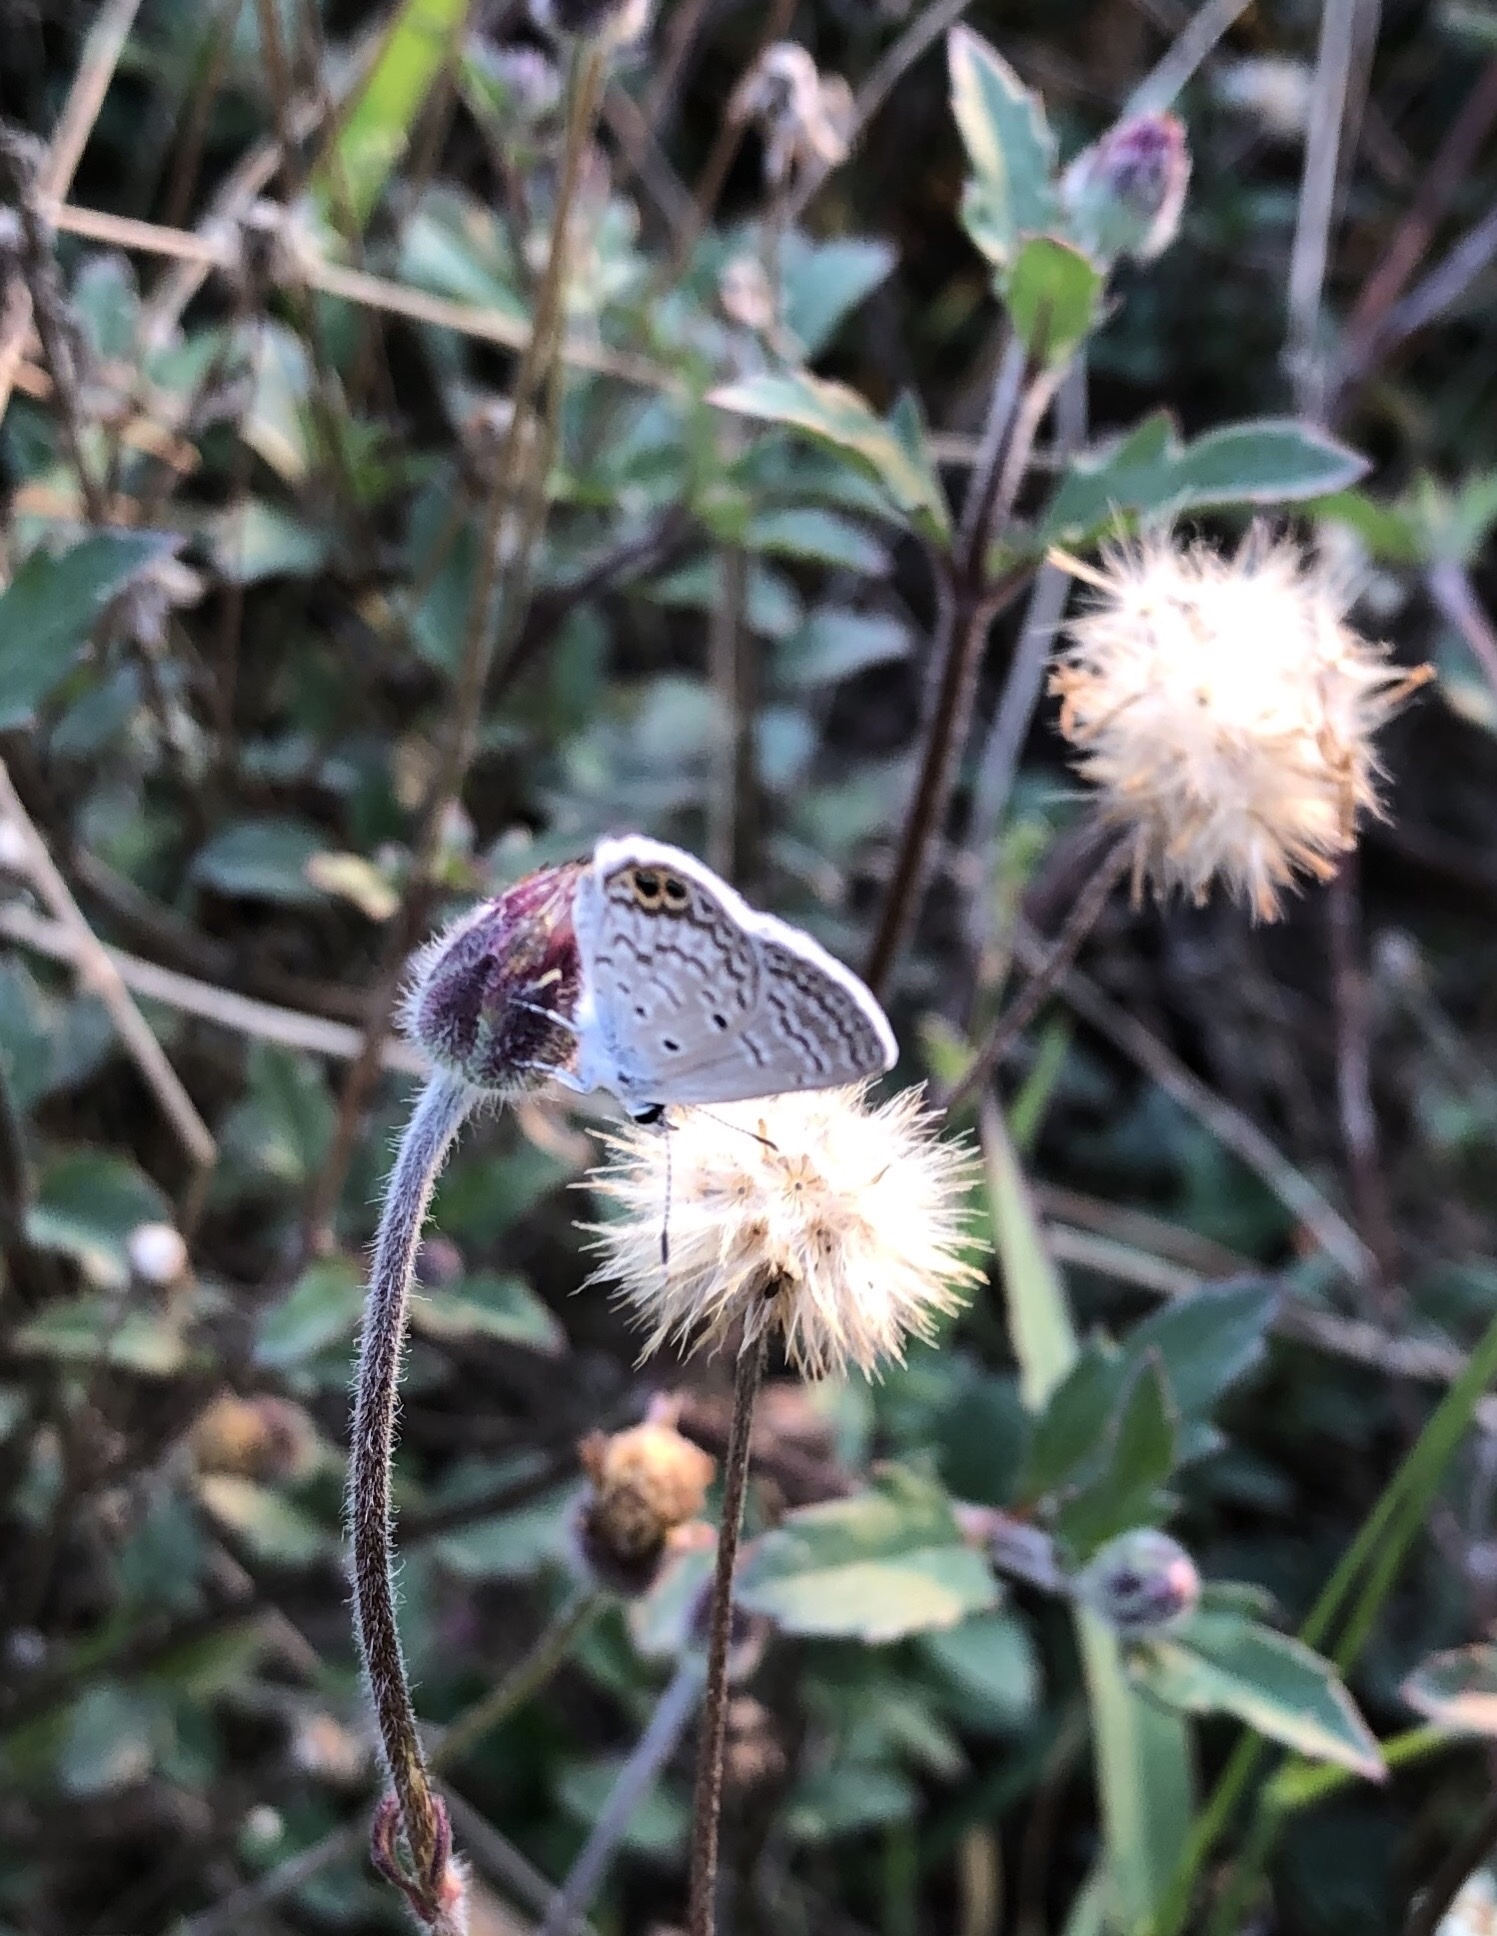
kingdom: Animalia
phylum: Arthropoda
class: Insecta
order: Lepidoptera
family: Lycaenidae
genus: Hemiargus
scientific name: Hemiargus ceraunus
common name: Ceraunus blue
